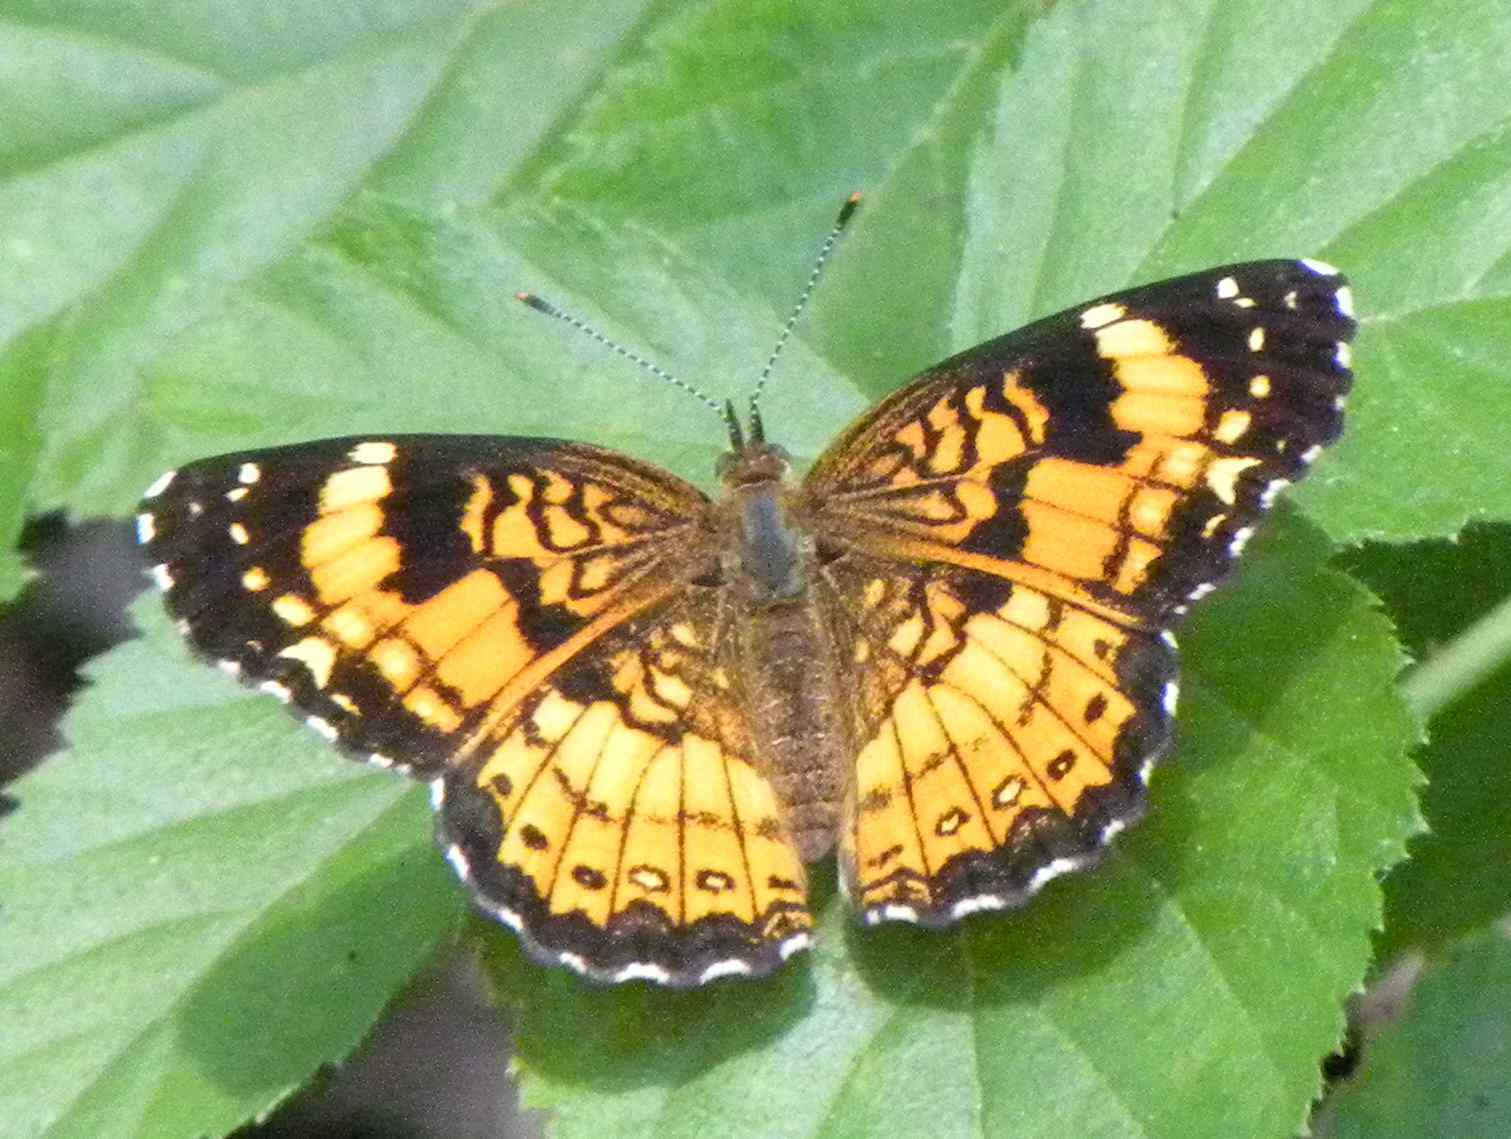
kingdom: Animalia
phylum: Arthropoda
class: Insecta
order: Lepidoptera
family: Nymphalidae
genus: Chlosyne
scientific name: Chlosyne nycteis
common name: Silvery checkerspot
